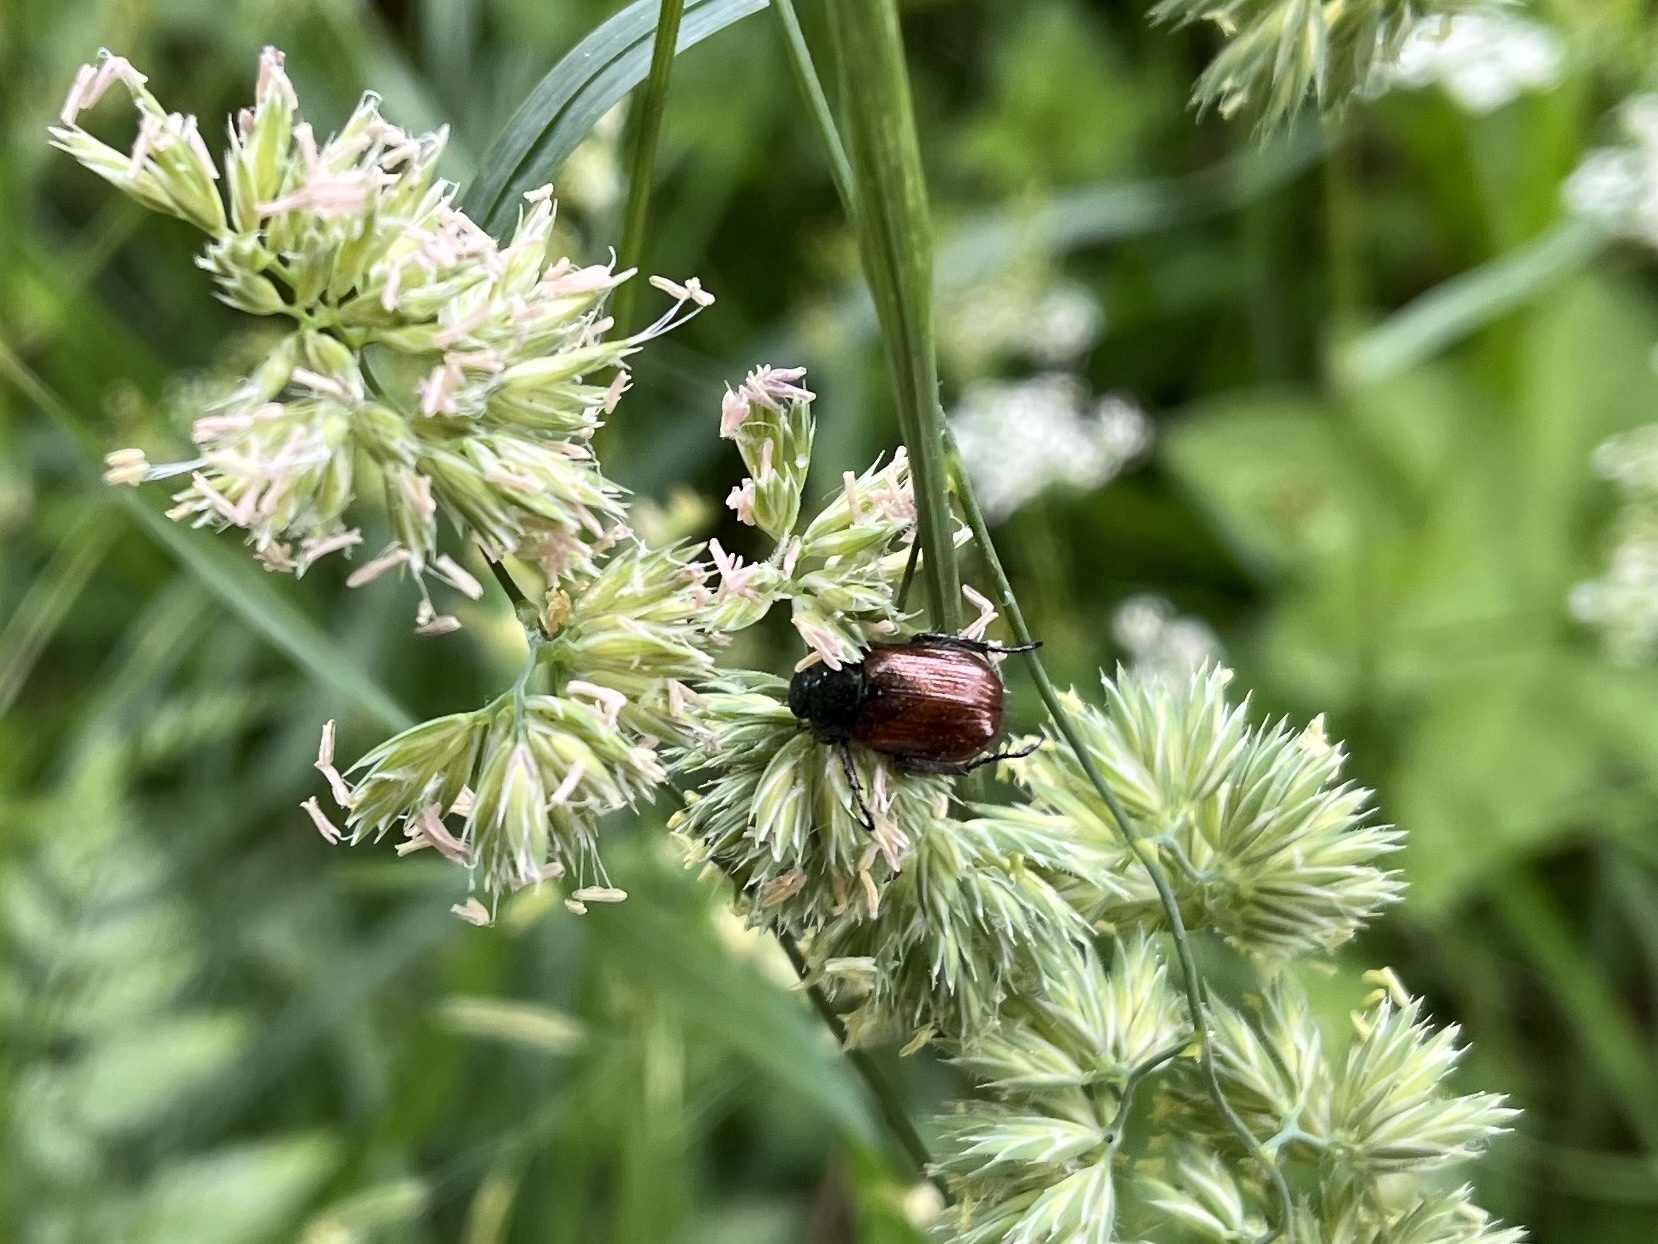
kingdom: Animalia
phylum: Arthropoda
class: Insecta
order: Coleoptera
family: Scarabaeidae
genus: Phyllopertha
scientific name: Phyllopertha horticola
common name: Garden chafer
